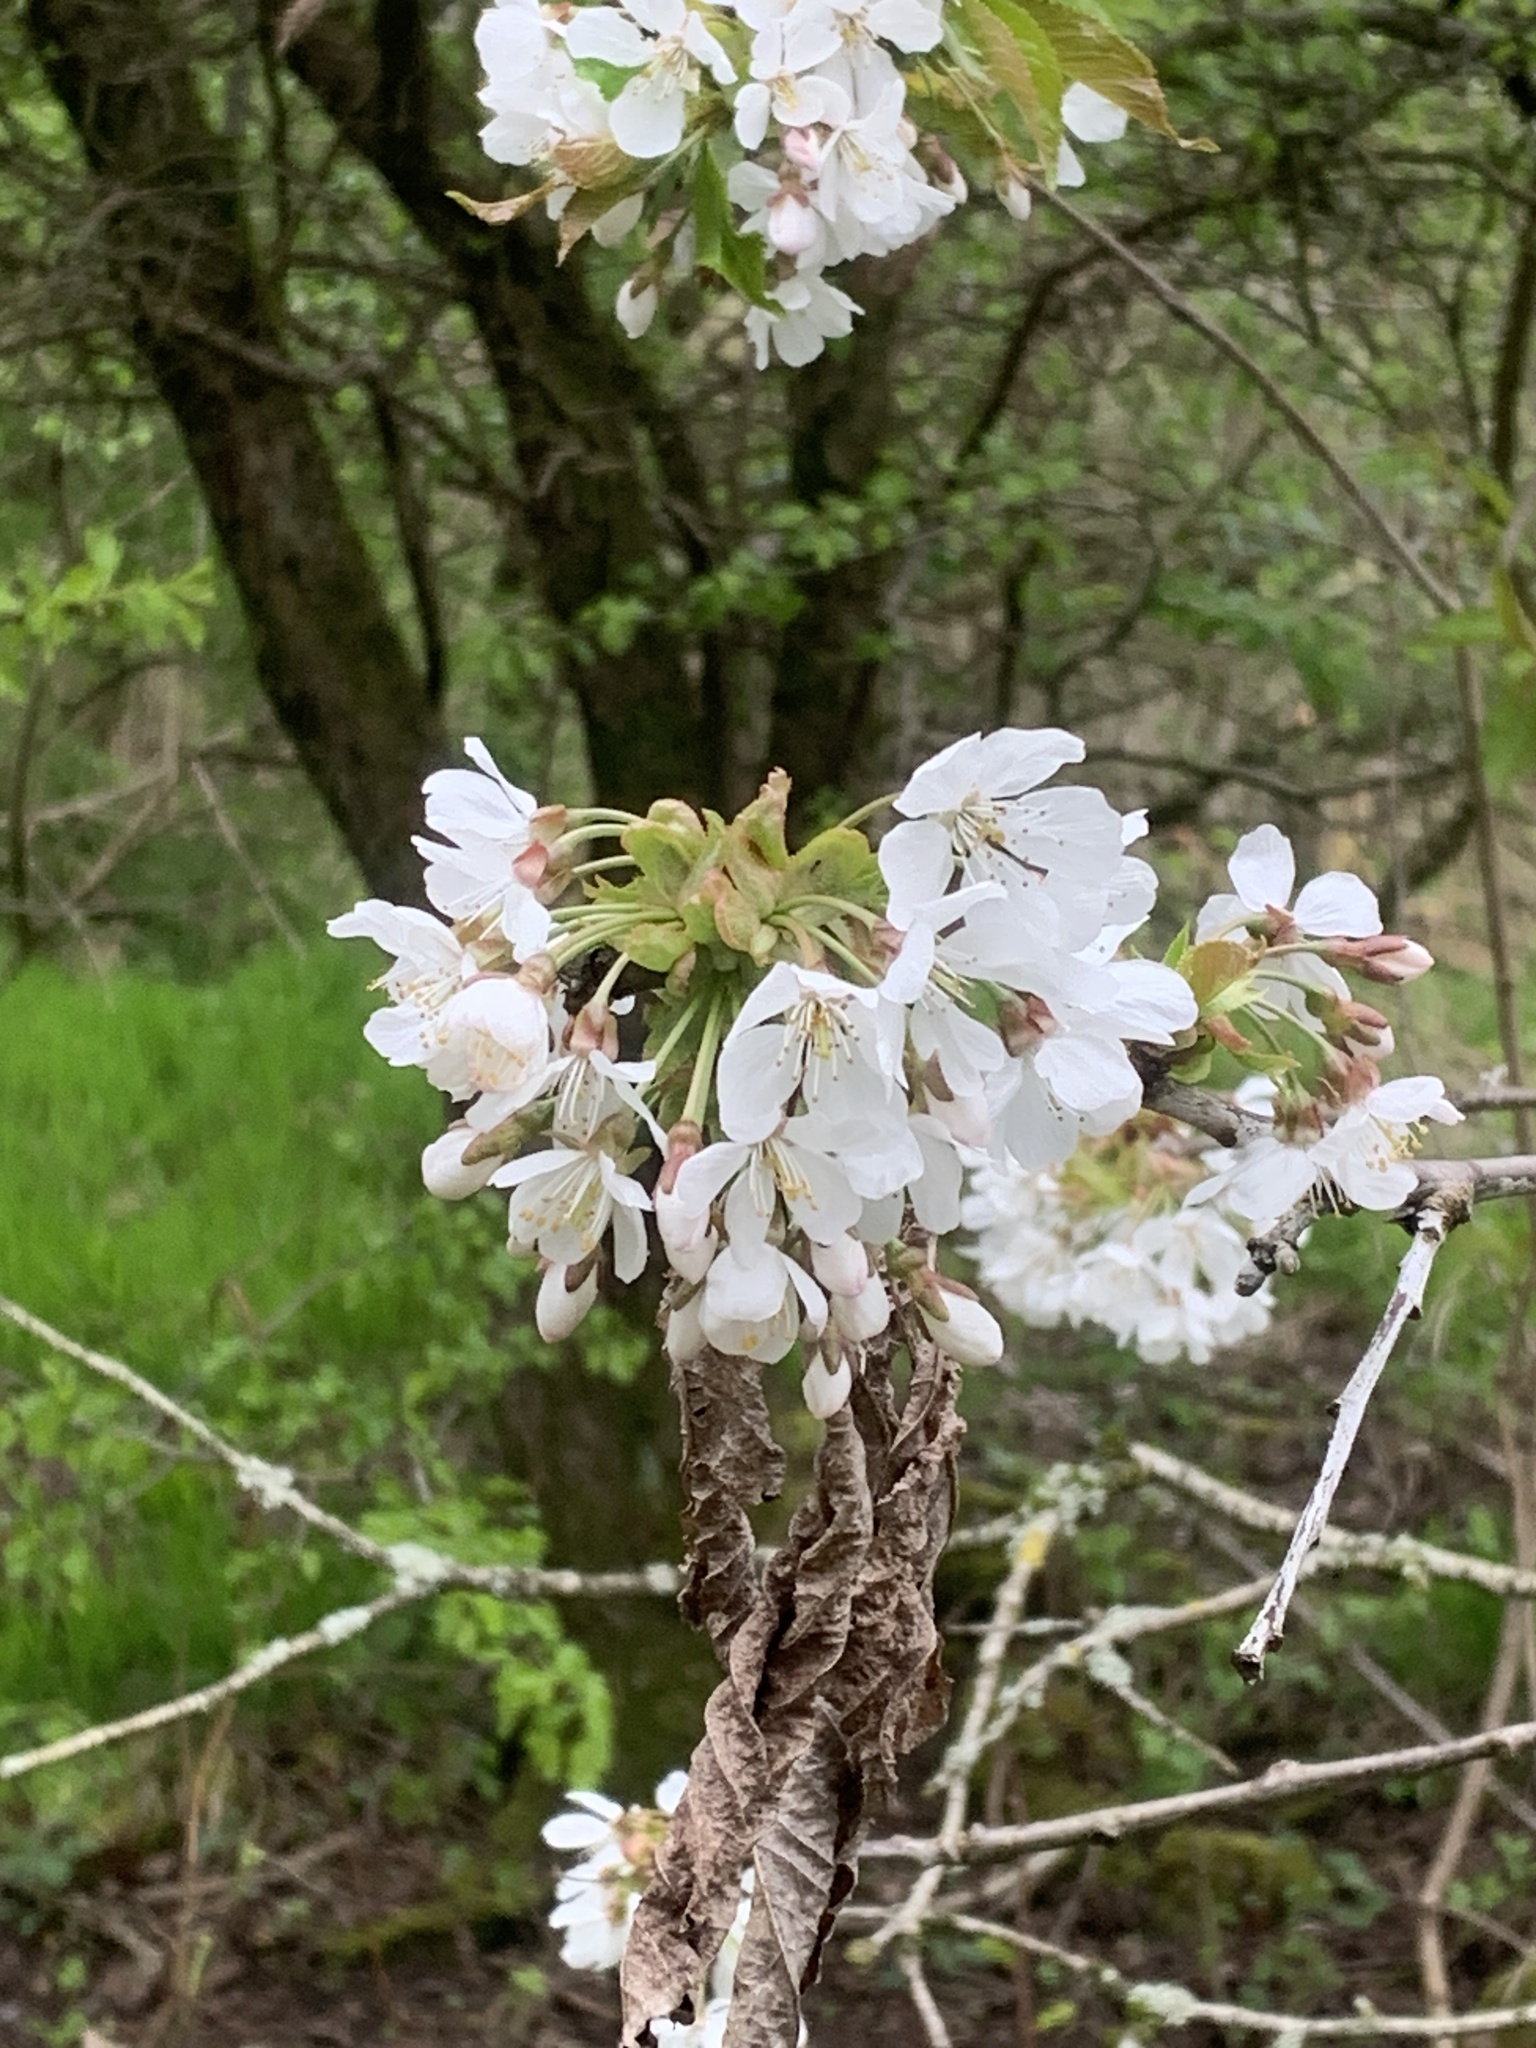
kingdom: Plantae
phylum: Tracheophyta
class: Magnoliopsida
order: Rosales
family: Rosaceae
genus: Prunus
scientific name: Prunus avium
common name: Sweet cherry
